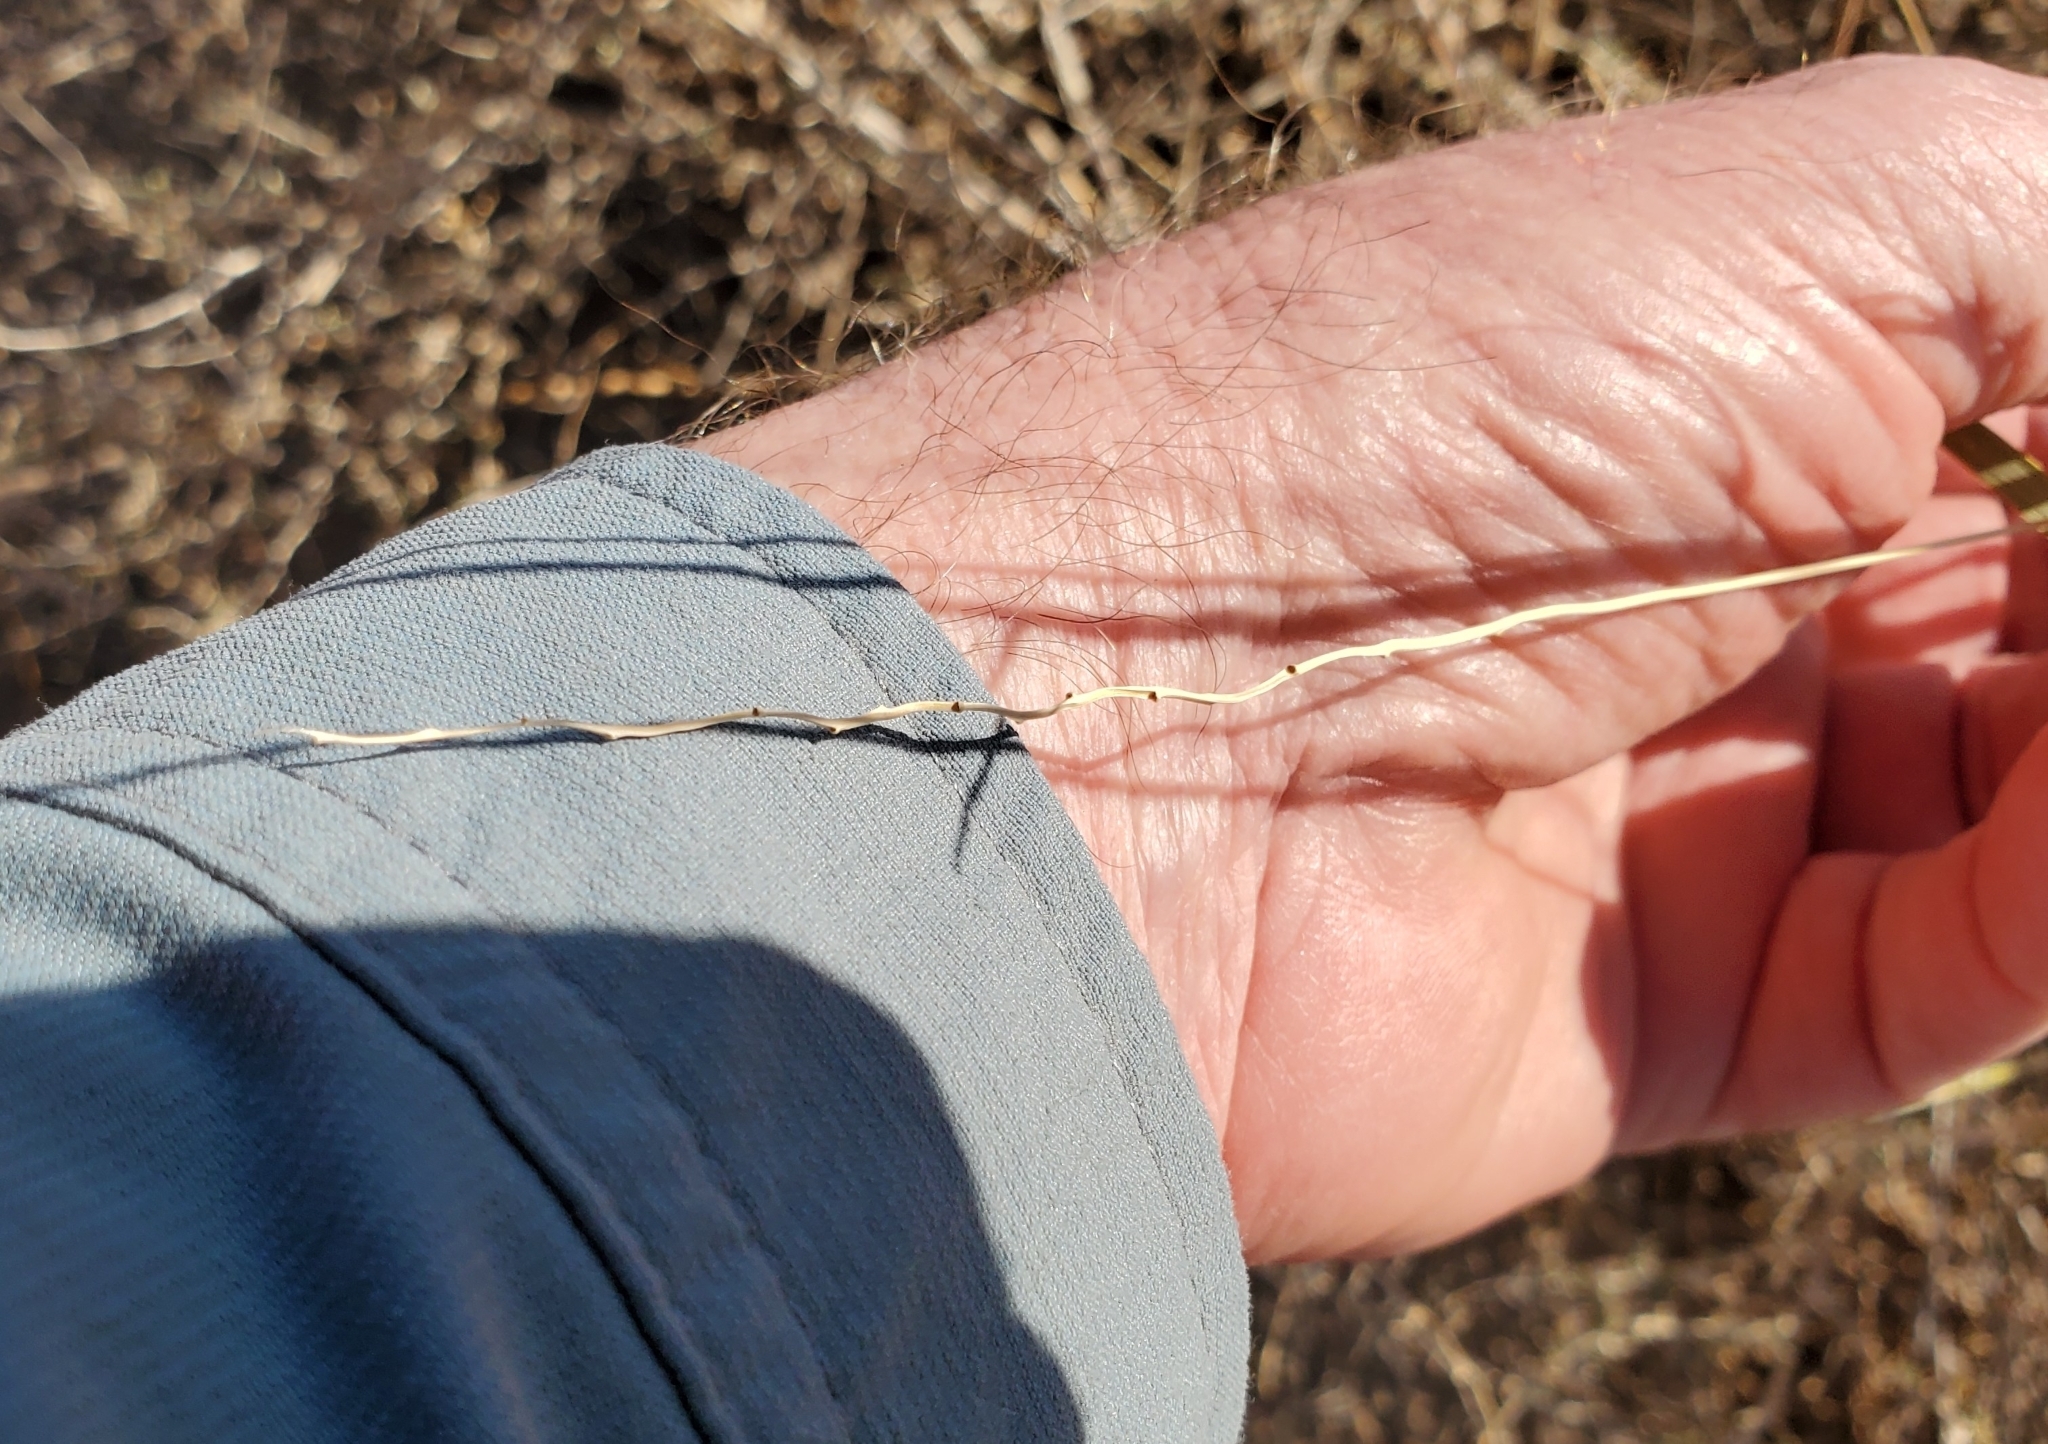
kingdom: Plantae
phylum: Tracheophyta
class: Liliopsida
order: Poales
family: Poaceae
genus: Hilaria
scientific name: Hilaria rigida
